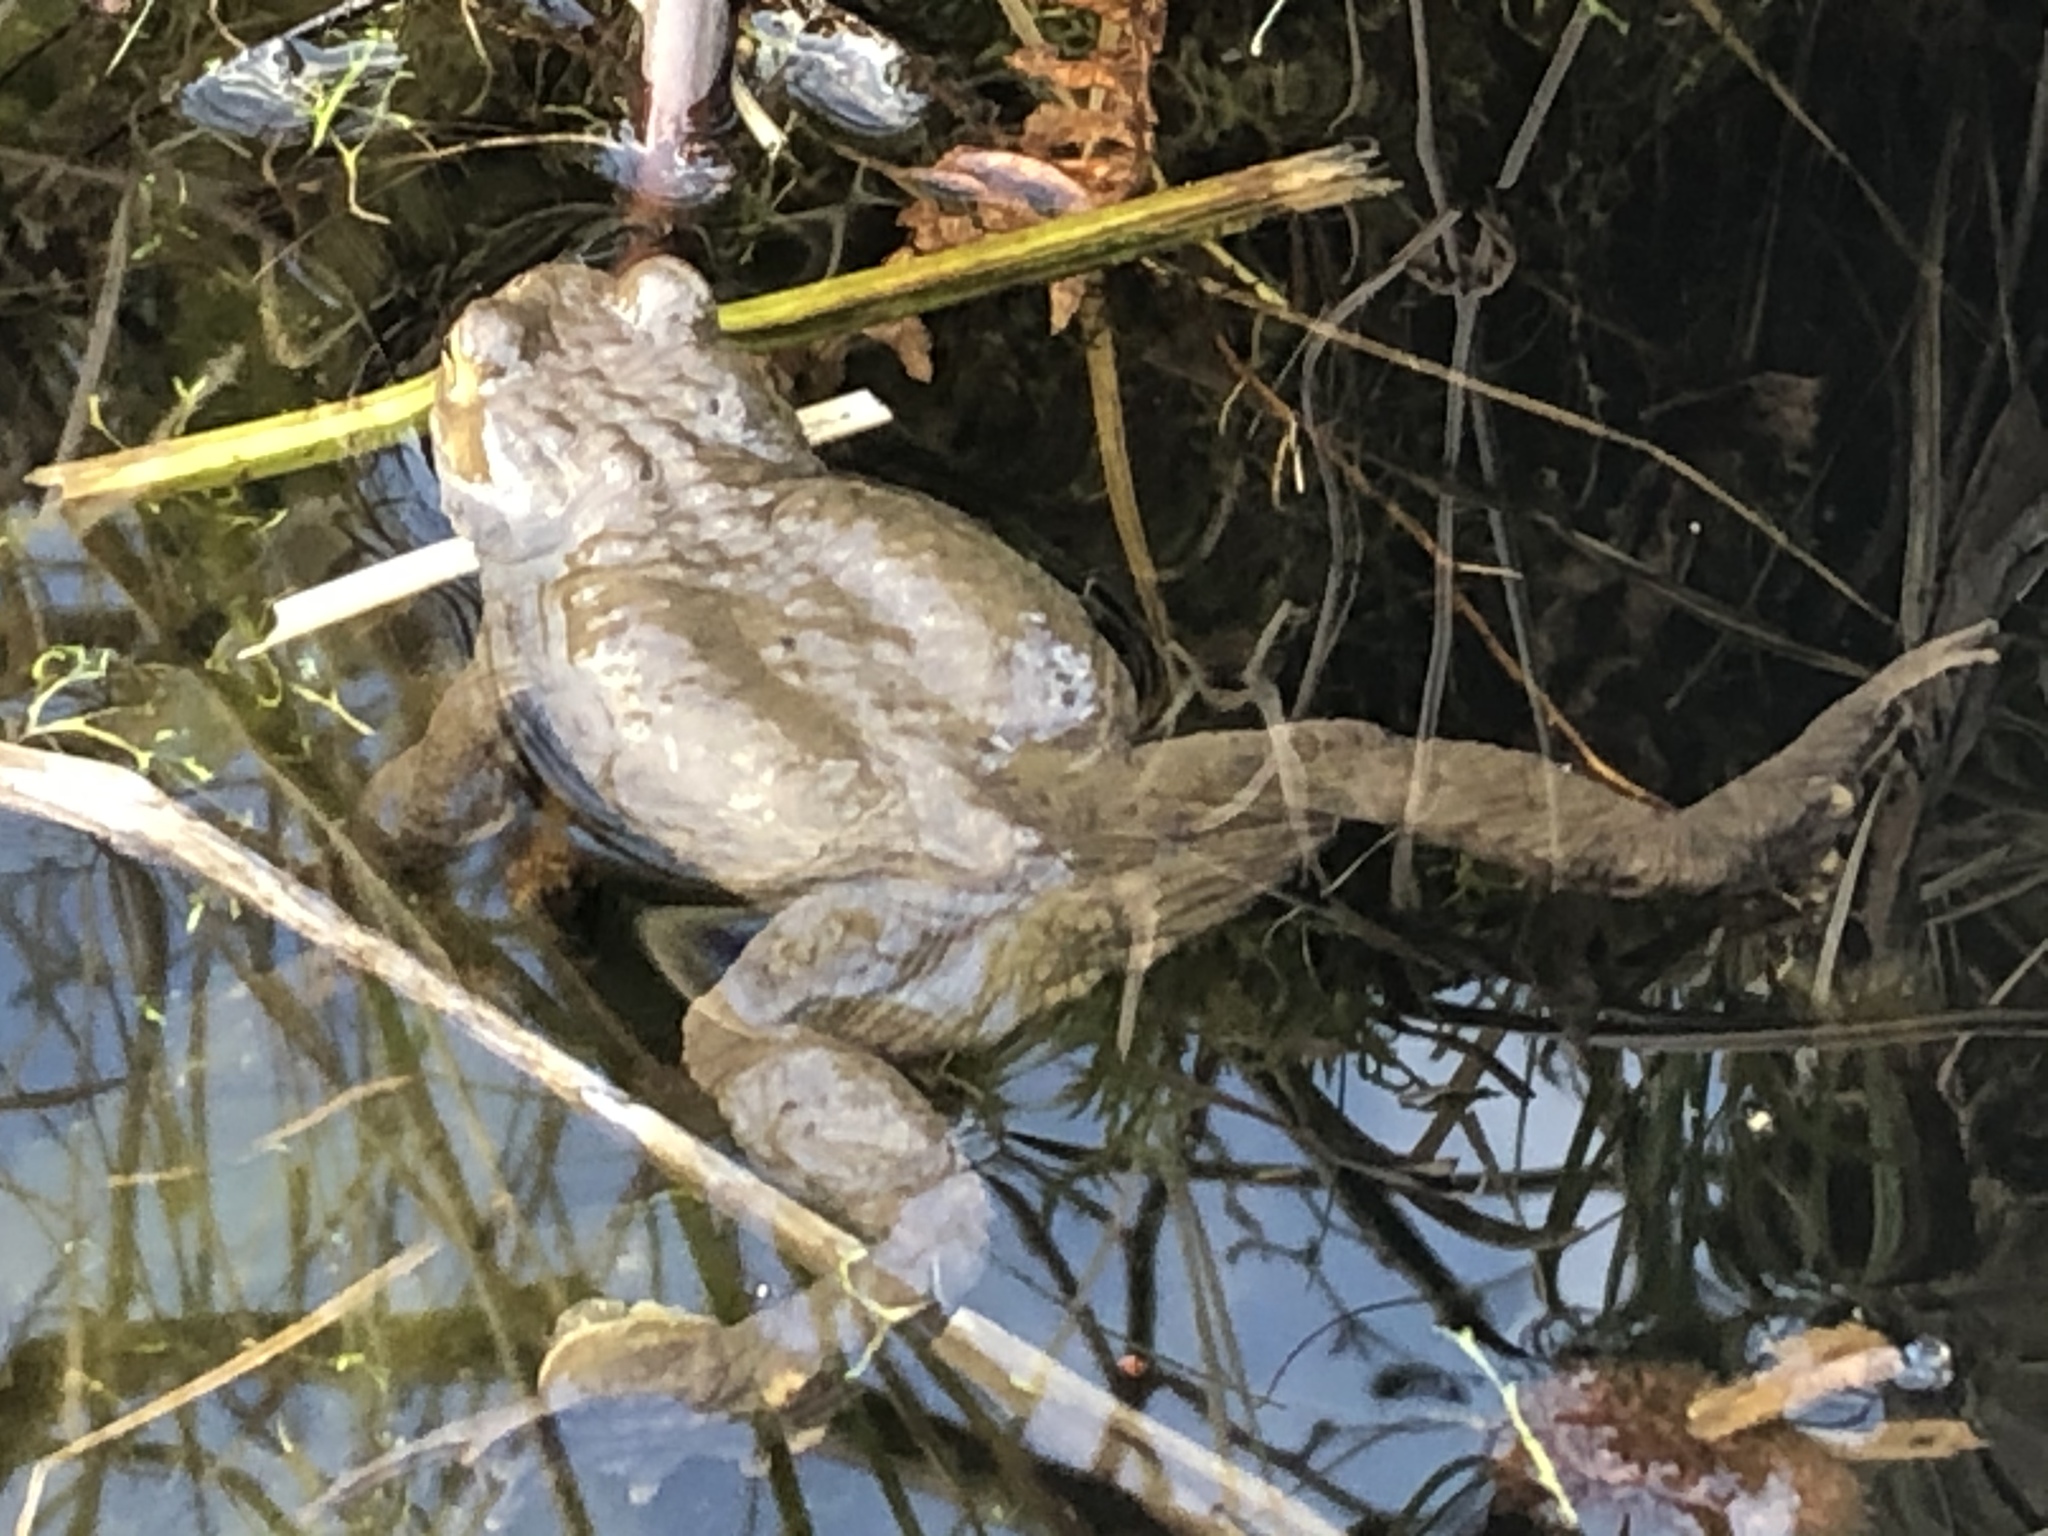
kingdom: Animalia
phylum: Chordata
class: Amphibia
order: Anura
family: Bufonidae
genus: Bufo
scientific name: Bufo bufo
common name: Common toad
